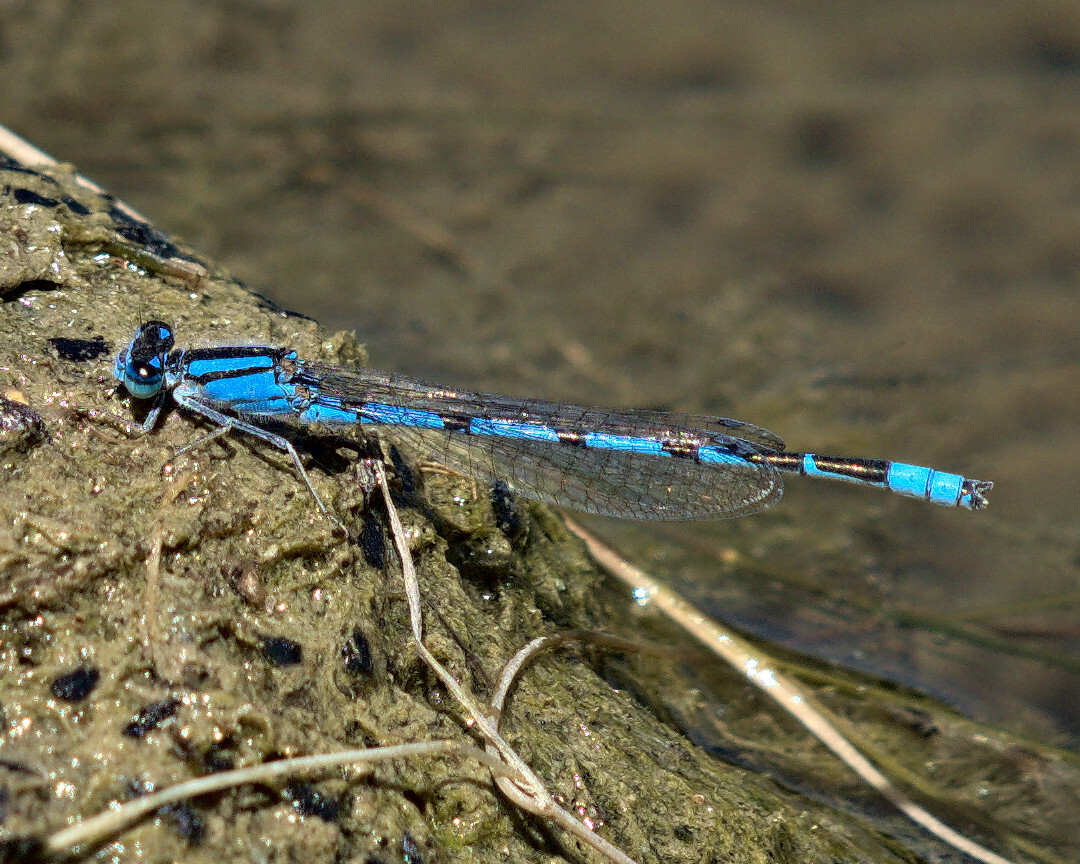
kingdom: Animalia
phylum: Arthropoda
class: Insecta
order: Odonata
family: Coenagrionidae
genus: Enallagma
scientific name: Enallagma civile
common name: Damselfly
